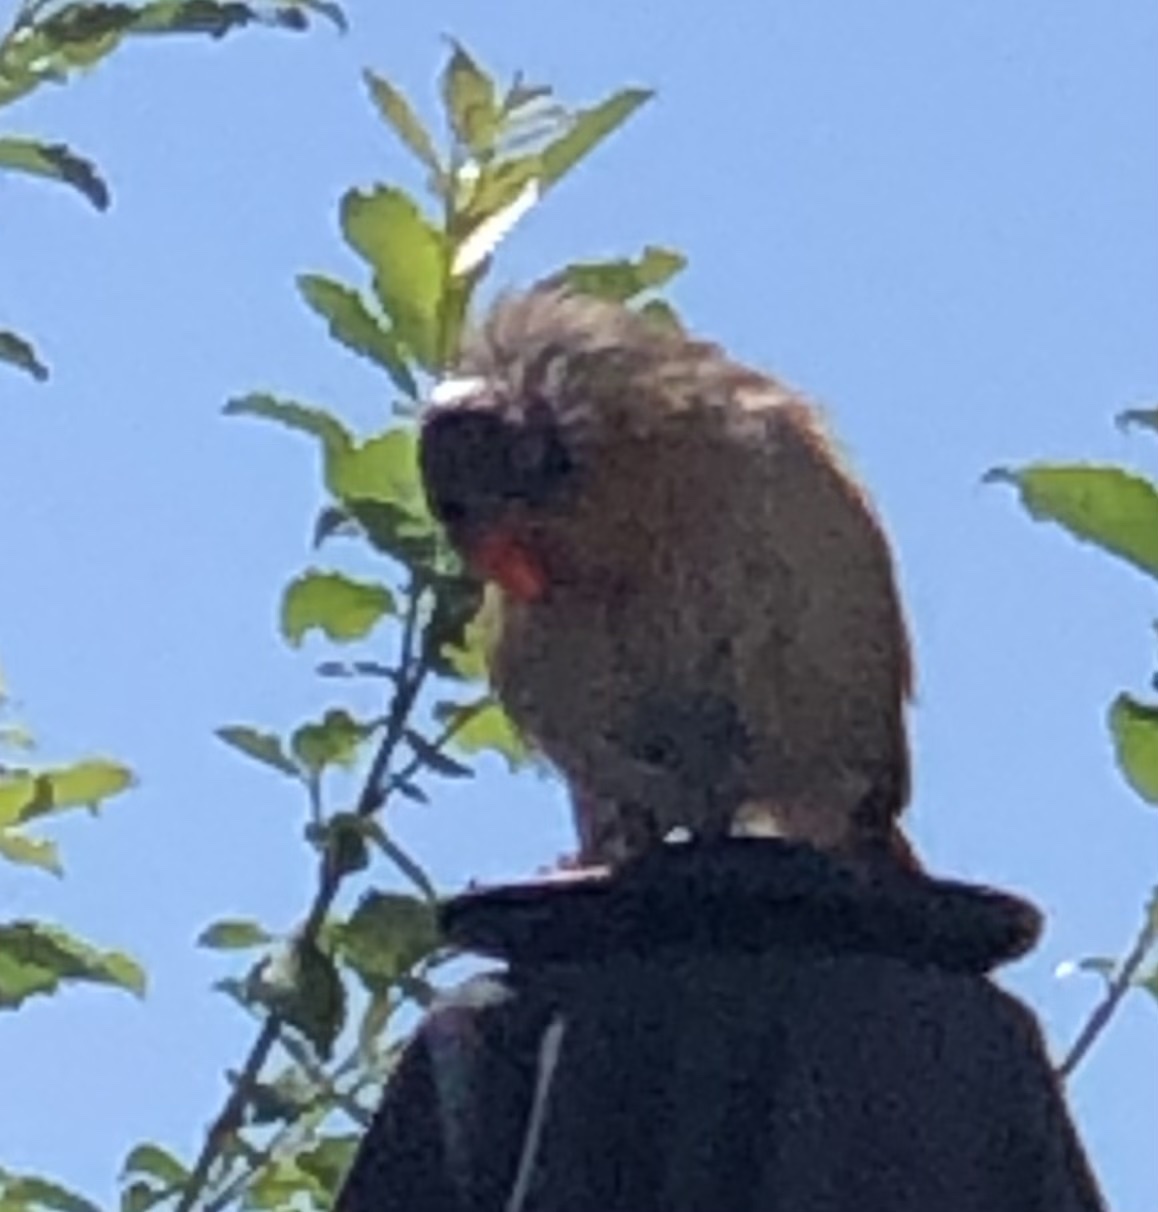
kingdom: Animalia
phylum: Chordata
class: Aves
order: Passeriformes
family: Cardinalidae
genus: Cardinalis
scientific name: Cardinalis cardinalis
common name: Northern cardinal
